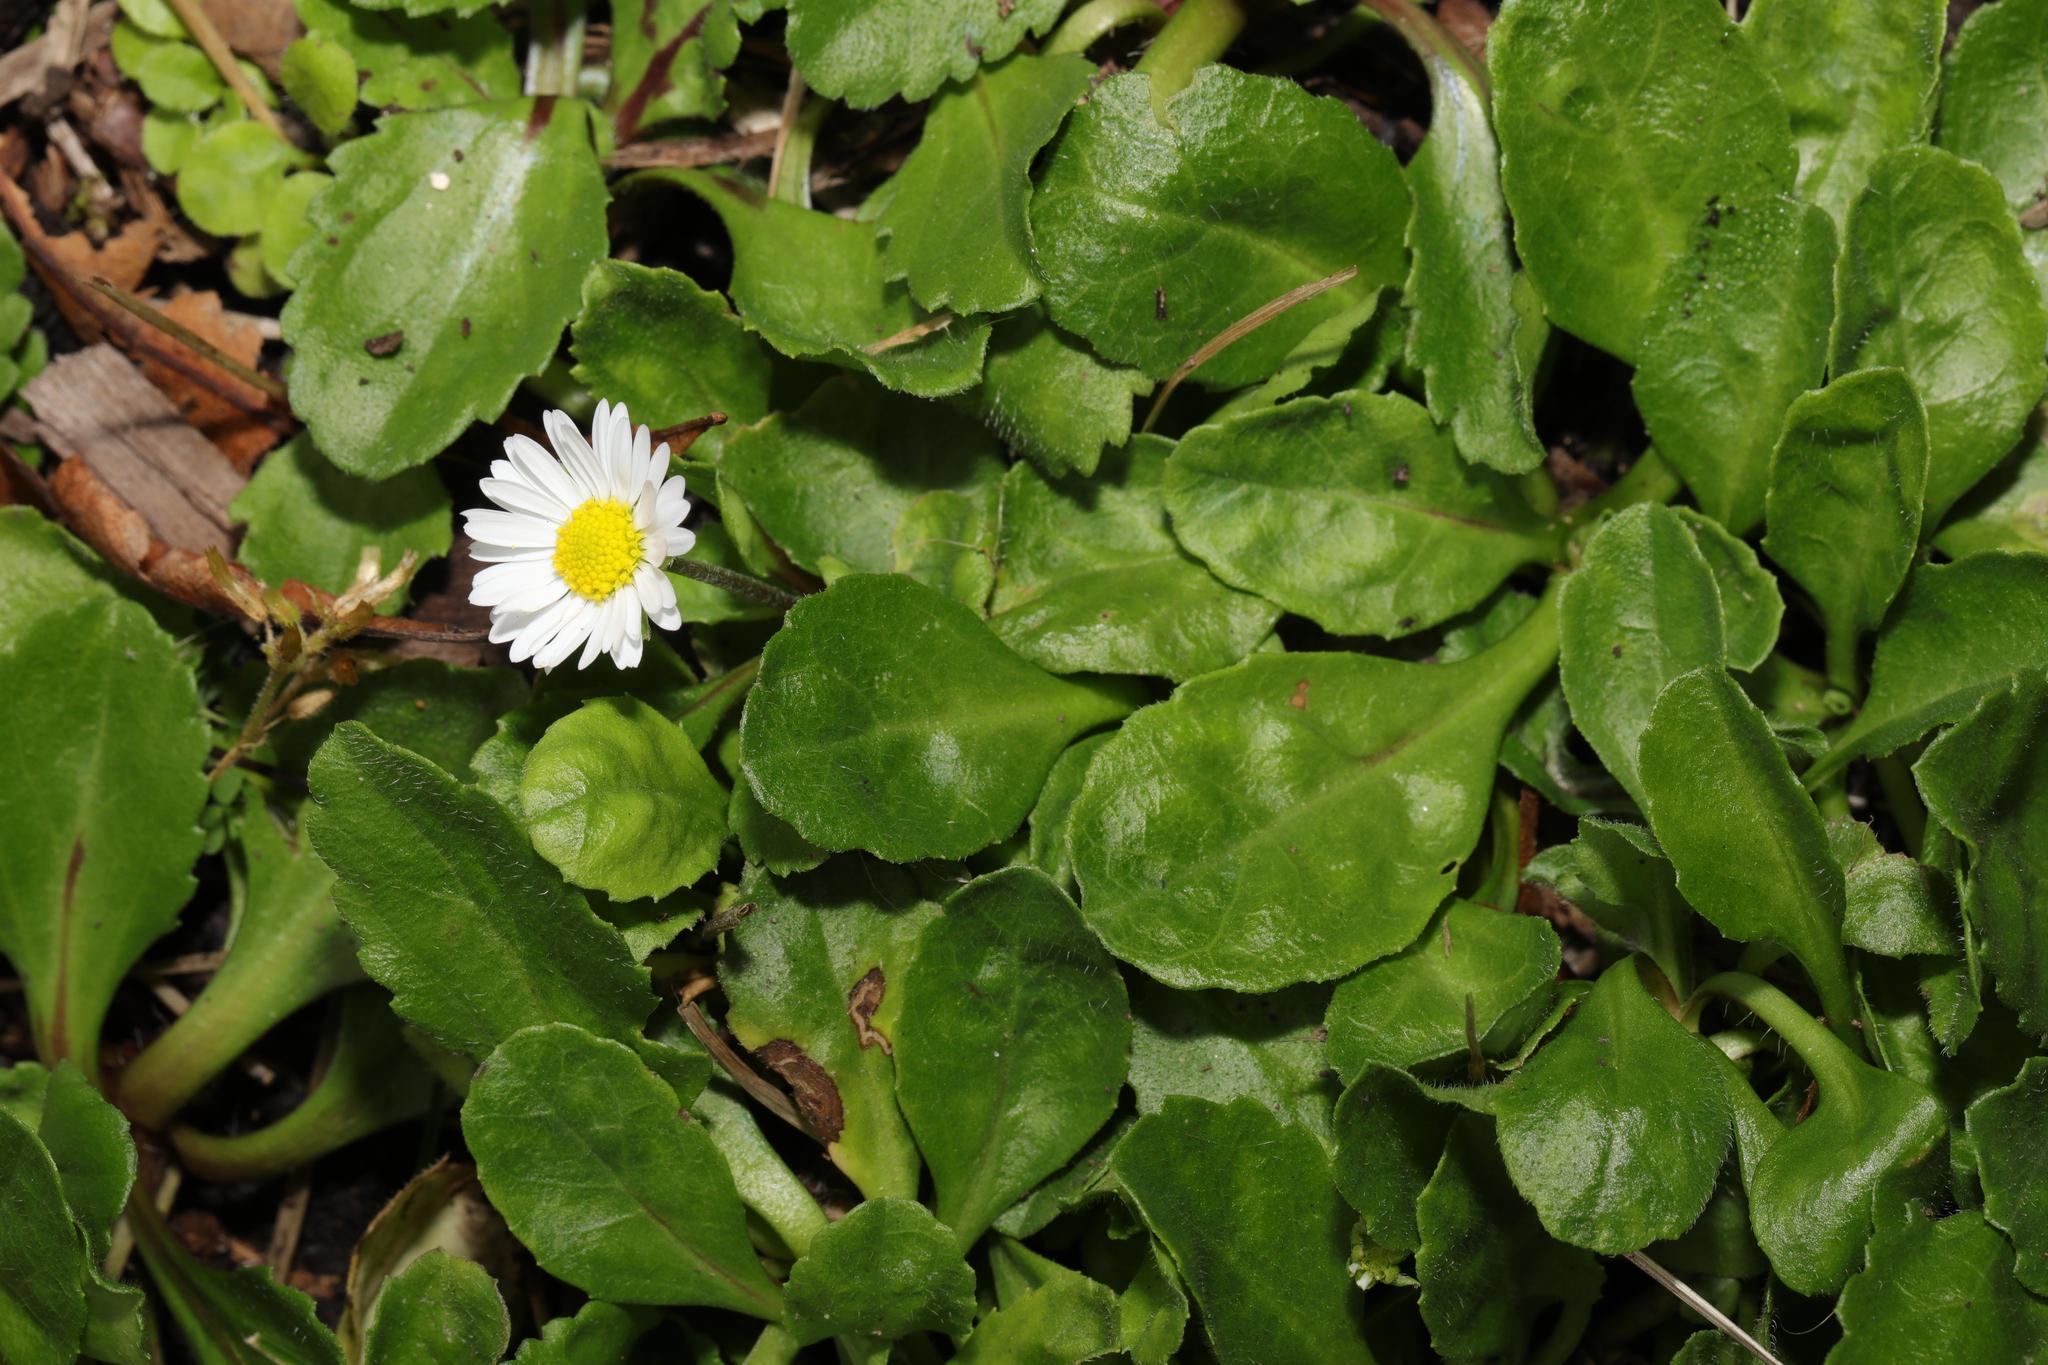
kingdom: Plantae
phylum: Tracheophyta
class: Magnoliopsida
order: Asterales
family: Asteraceae
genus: Bellis
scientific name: Bellis perennis
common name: Lawndaisy
